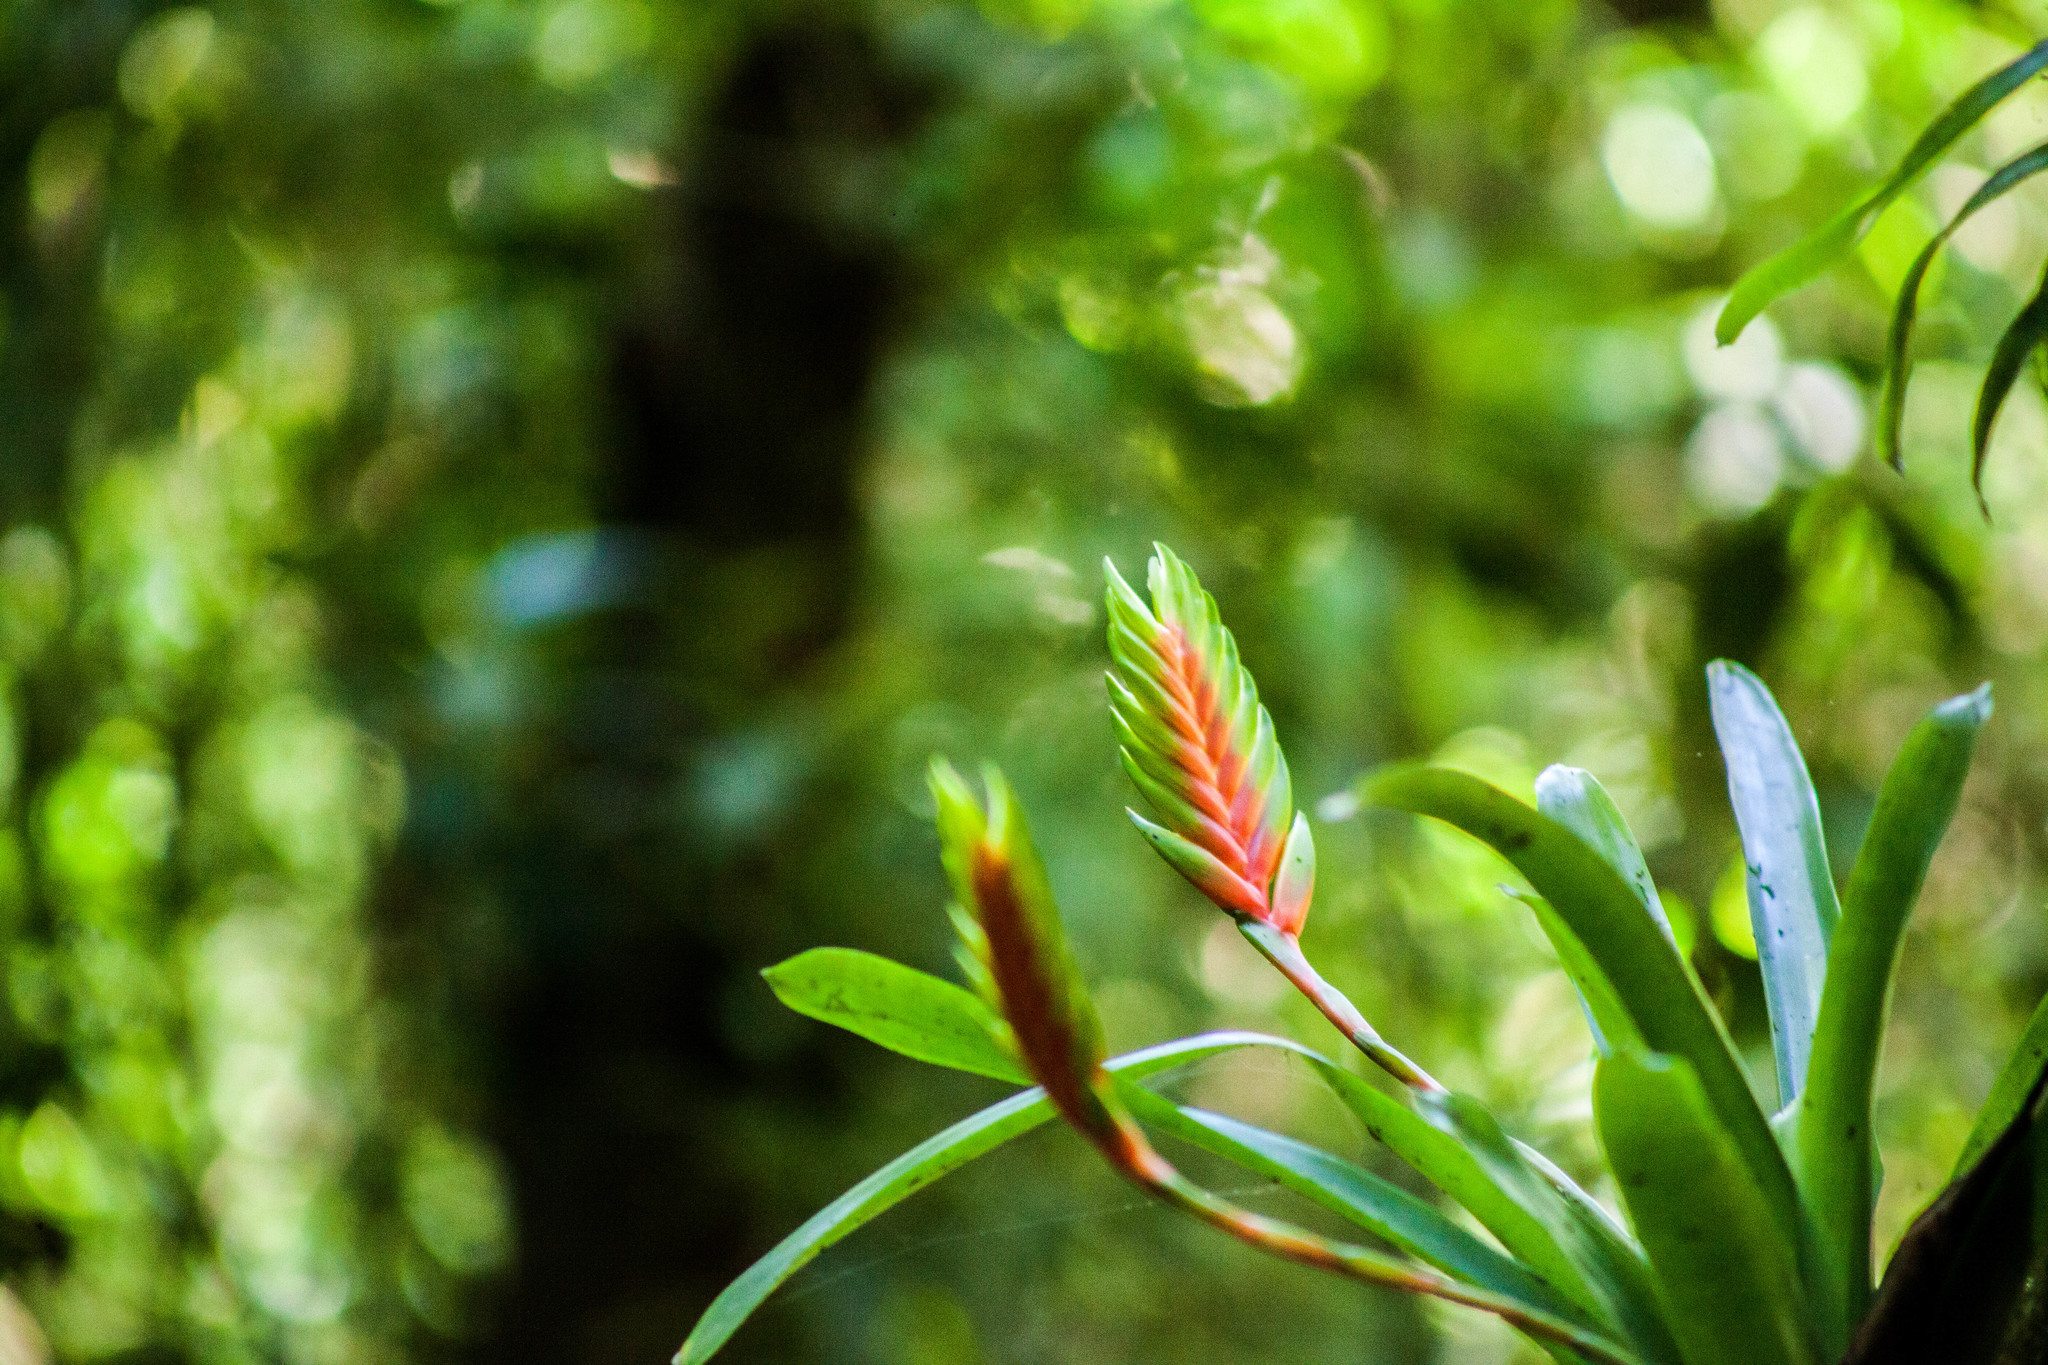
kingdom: Plantae
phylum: Tracheophyta
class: Liliopsida
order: Poales
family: Bromeliaceae
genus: Vriesea
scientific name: Vriesea interrogatoria
